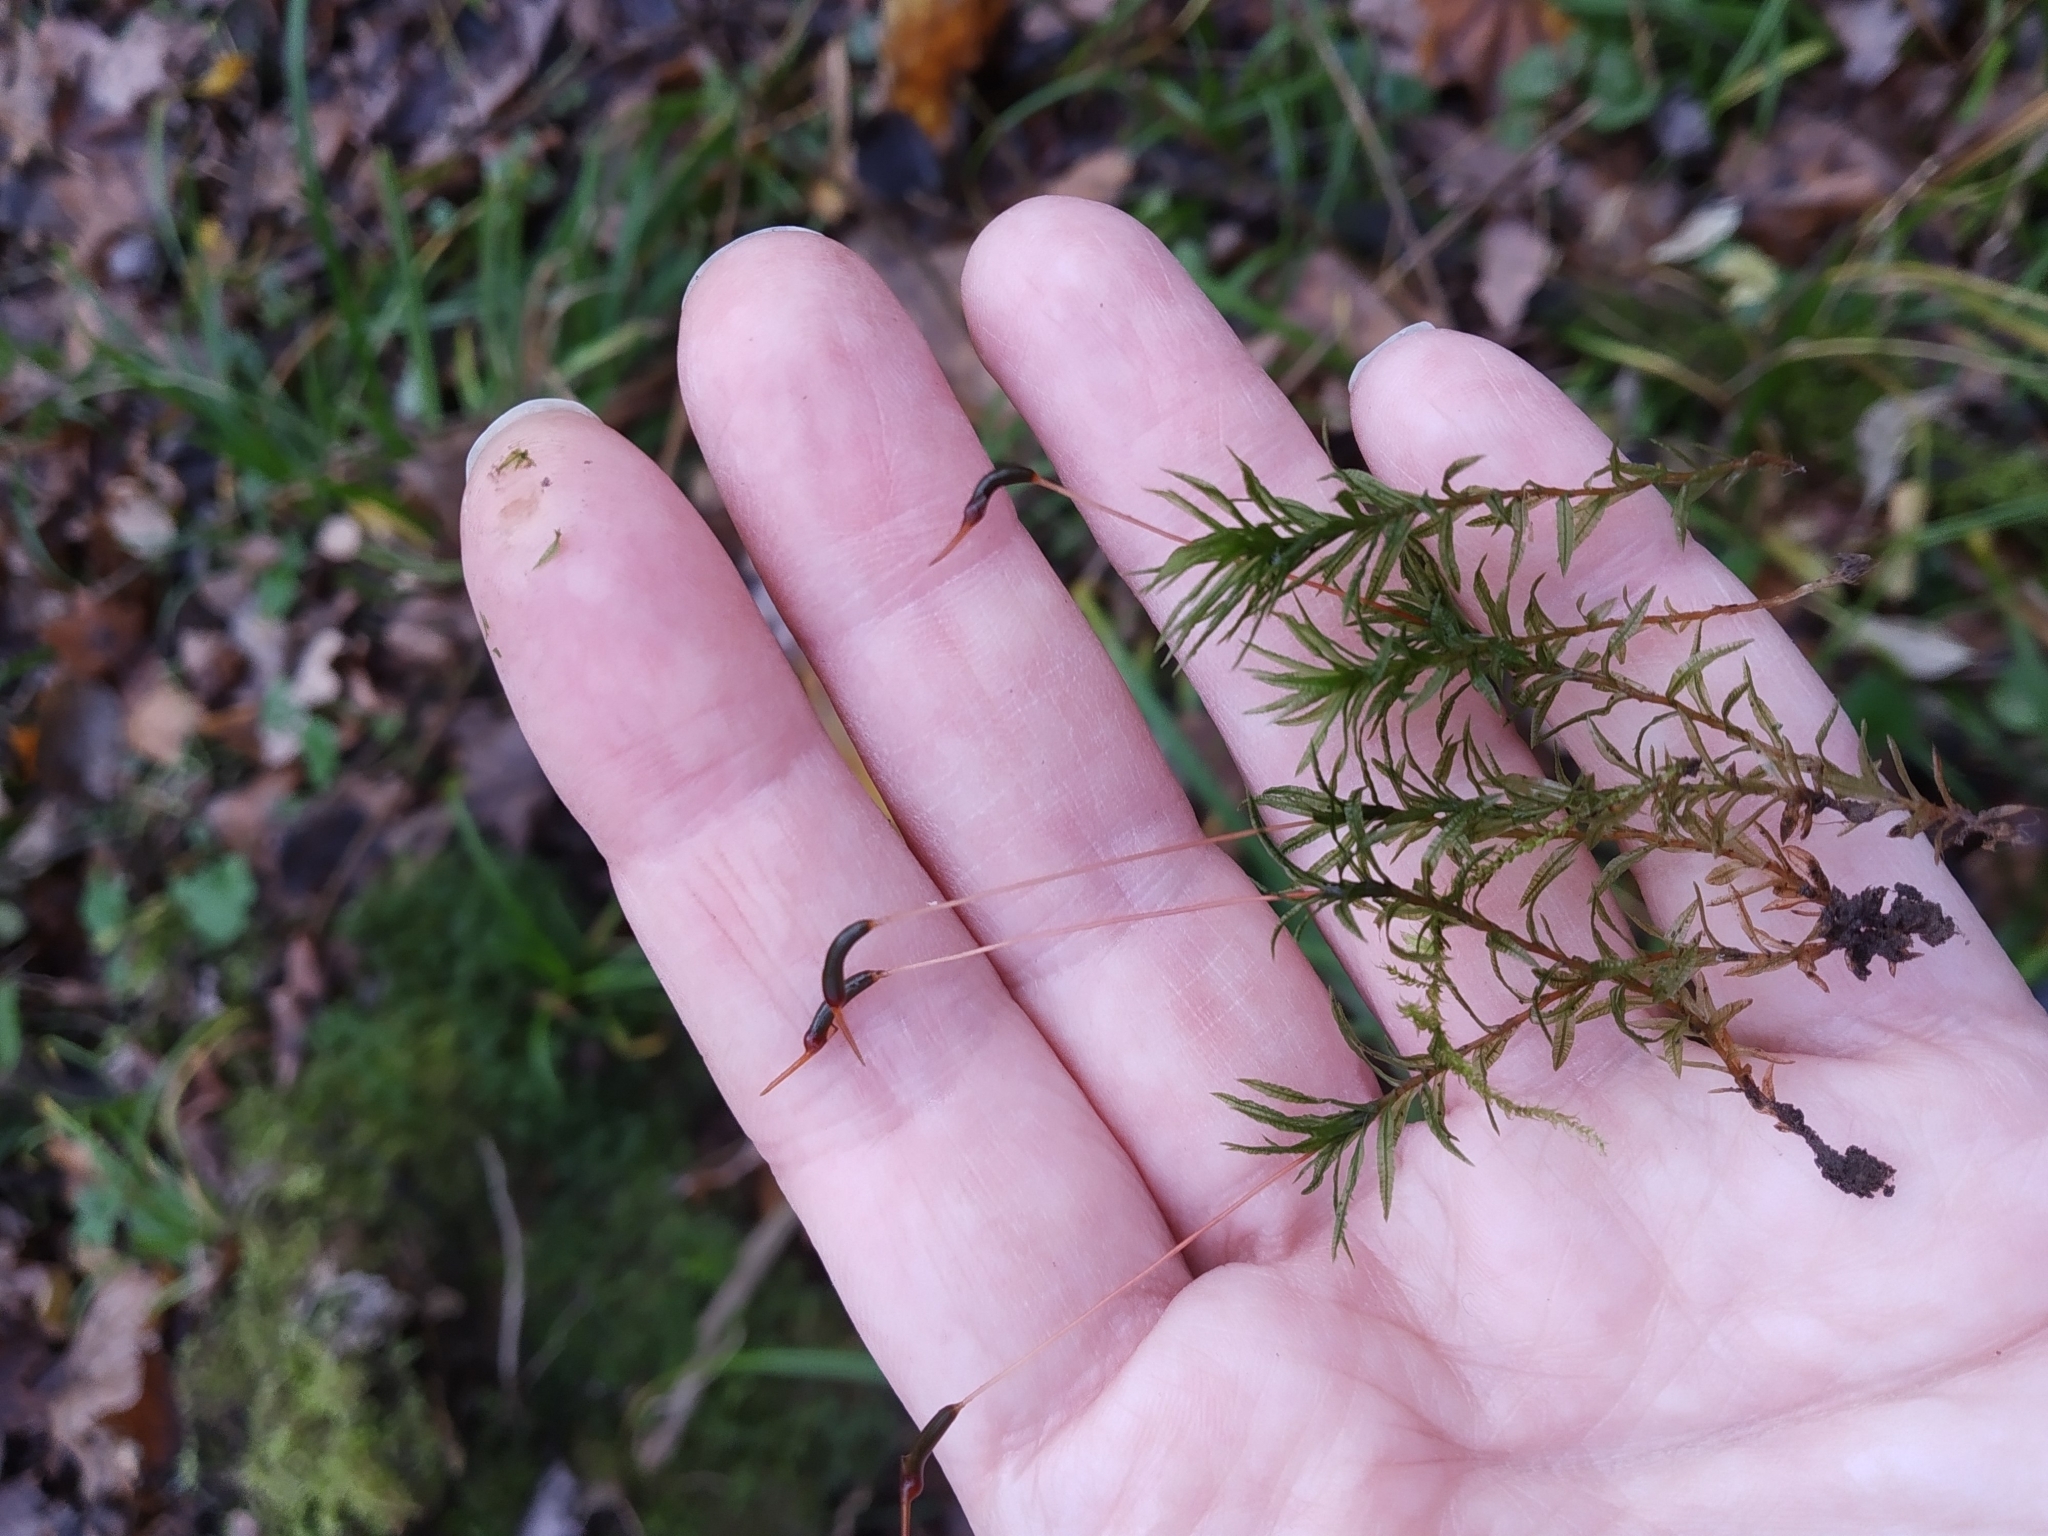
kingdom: Plantae
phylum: Bryophyta
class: Polytrichopsida
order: Polytrichales
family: Polytrichaceae
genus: Atrichum
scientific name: Atrichum undulatum
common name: Common smoothcap
